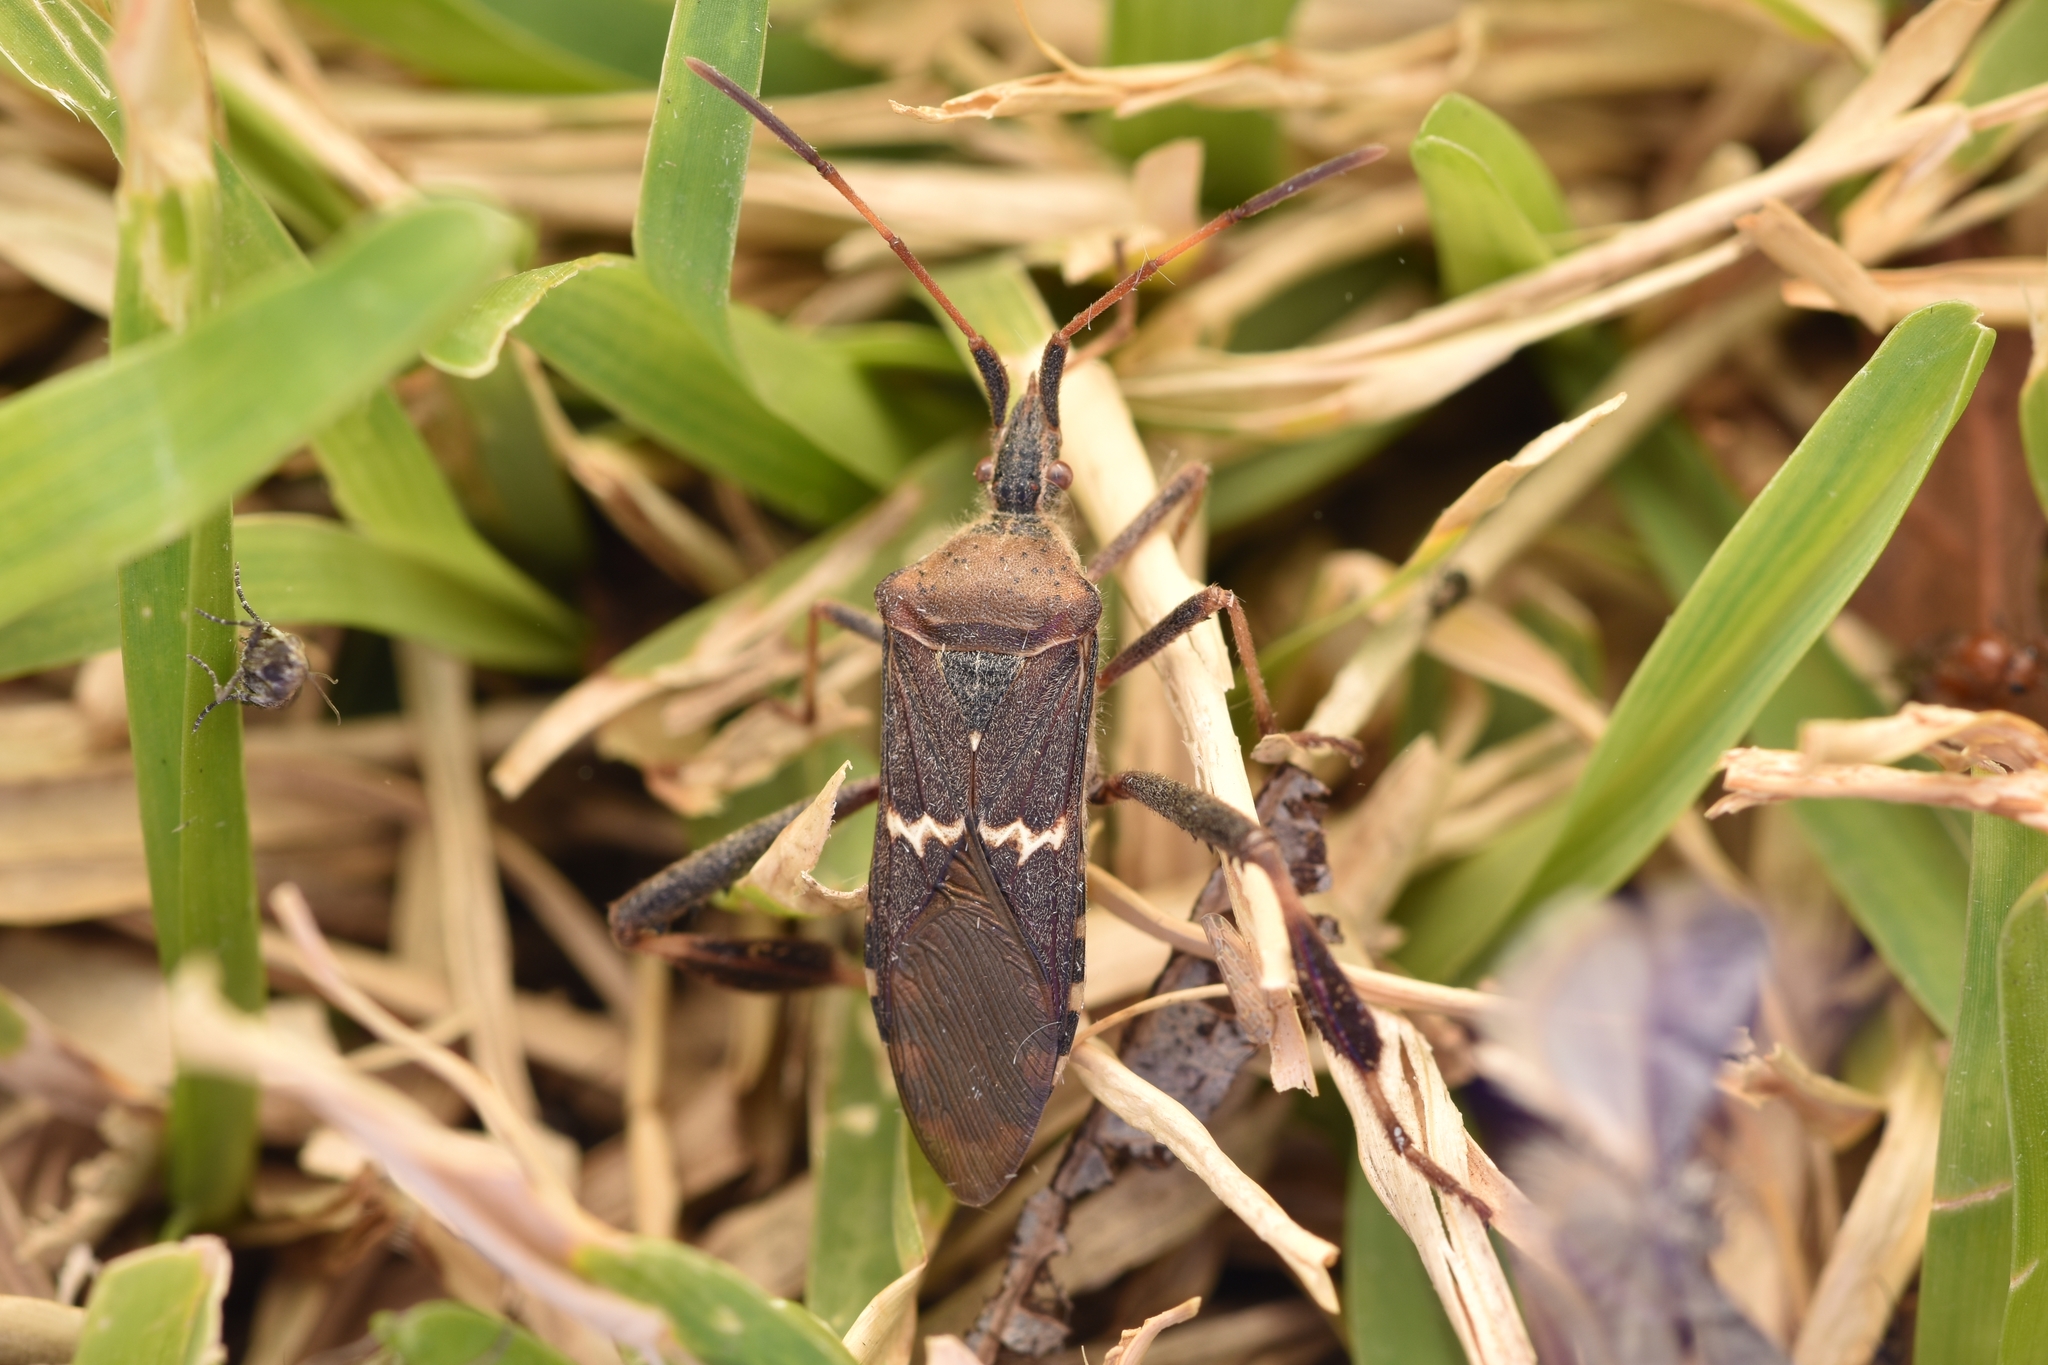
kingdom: Animalia
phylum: Arthropoda
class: Insecta
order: Hemiptera
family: Coreidae
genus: Leptoglossus
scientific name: Leptoglossus clypealis
